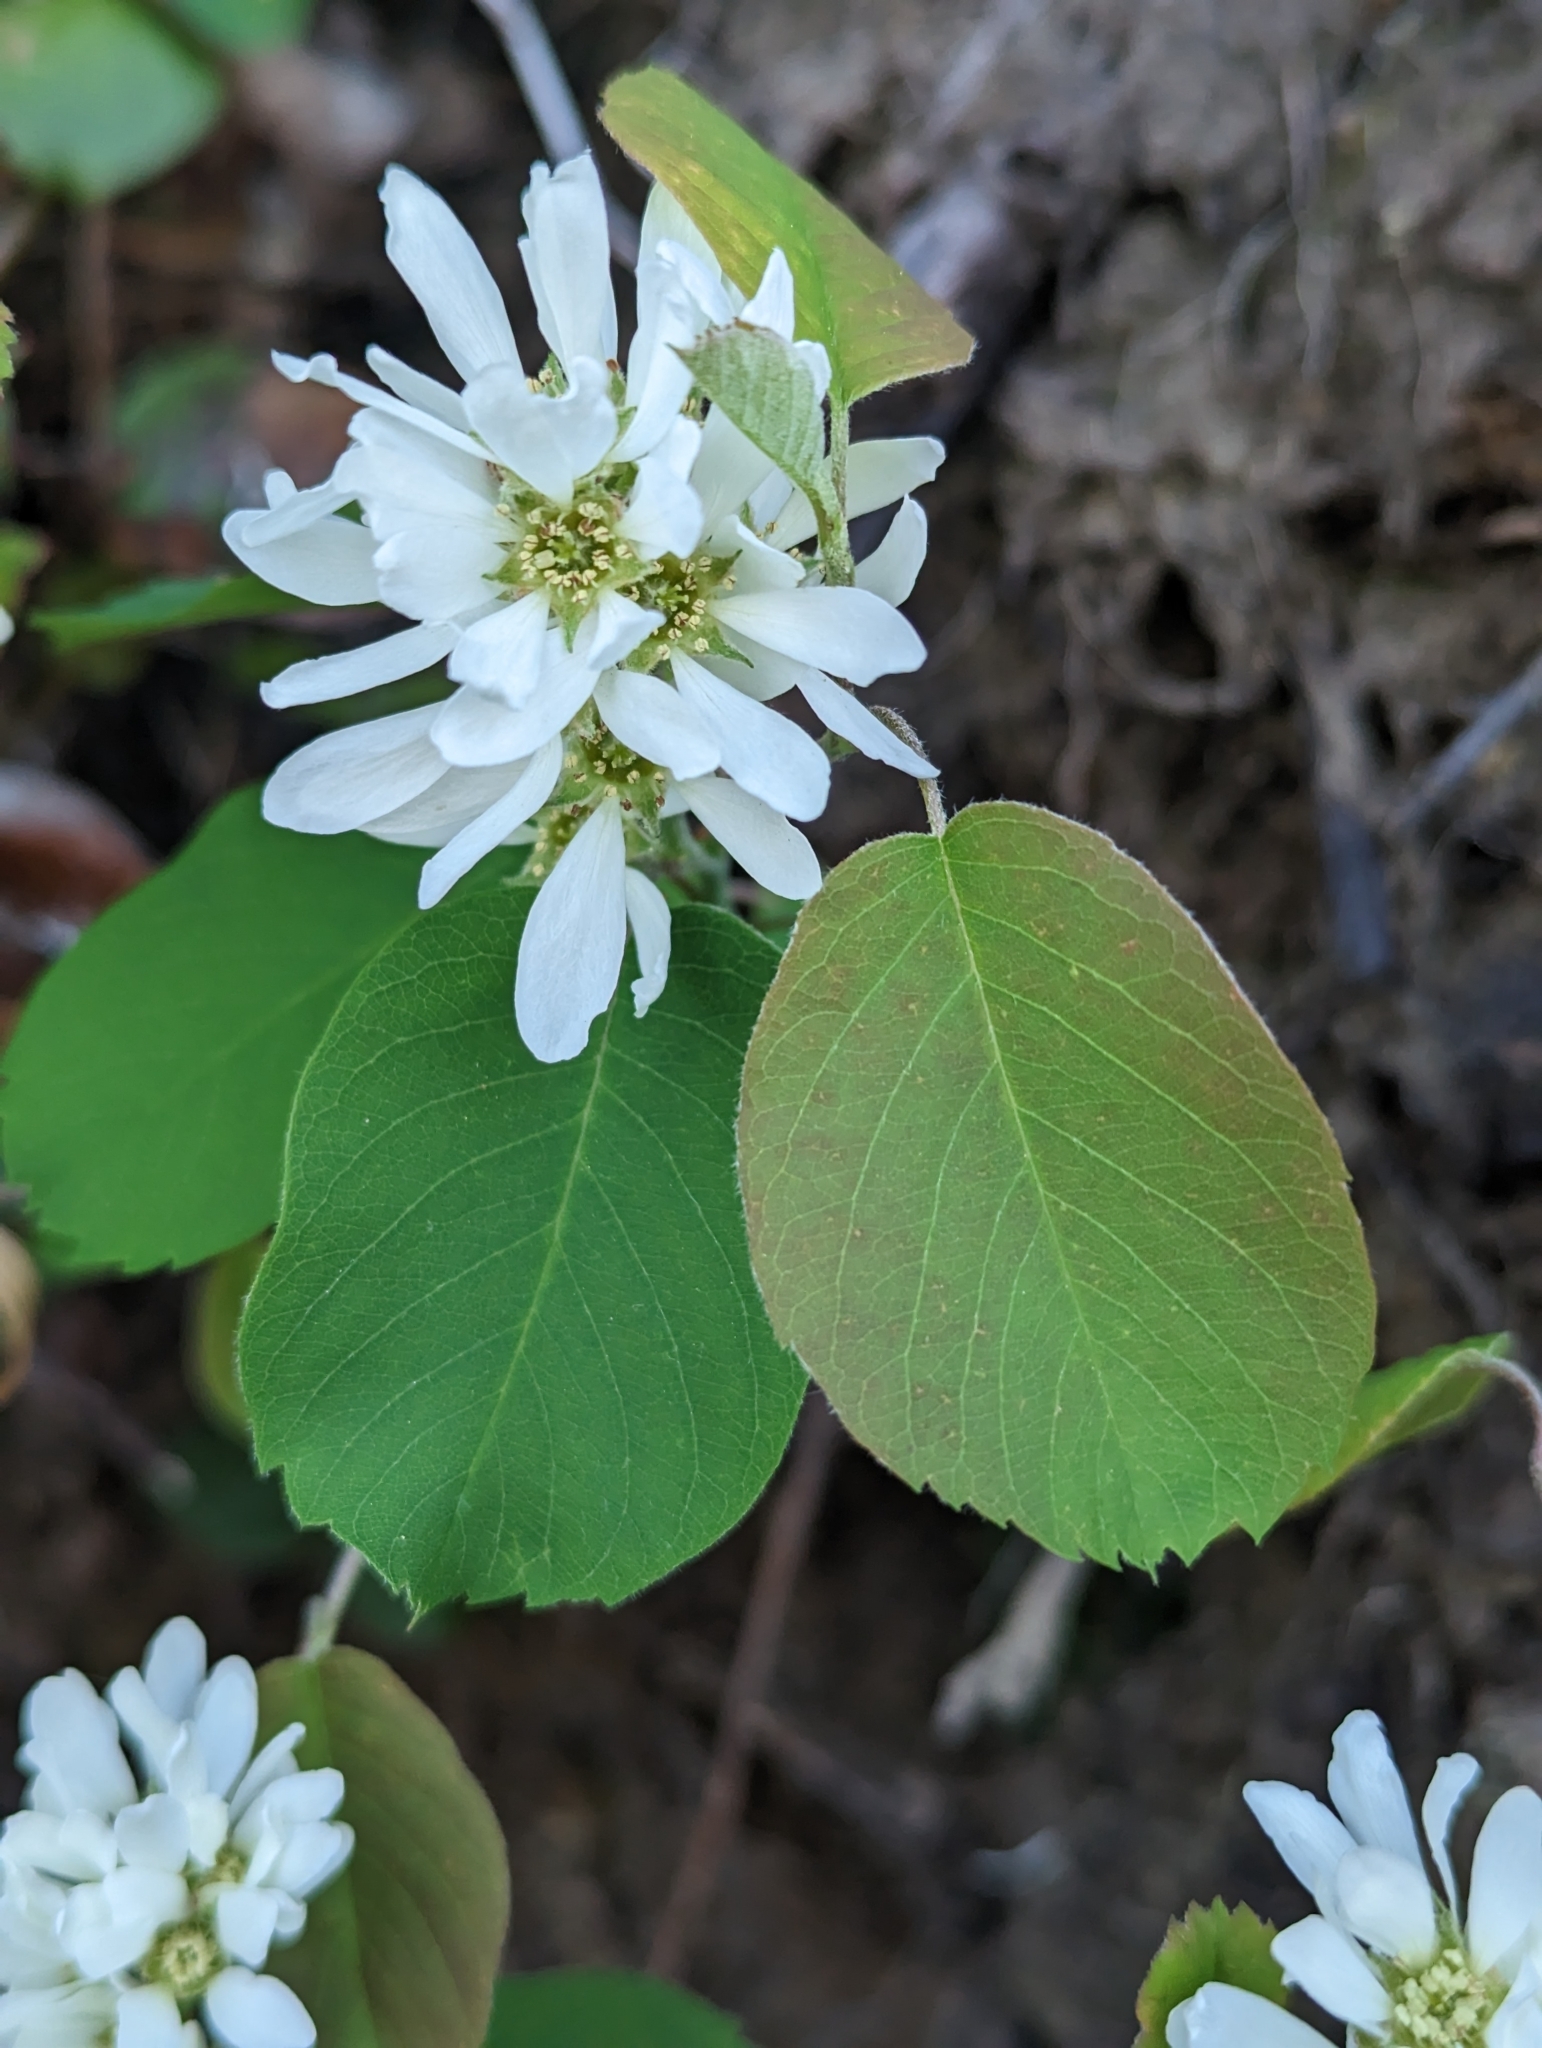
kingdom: Plantae
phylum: Tracheophyta
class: Magnoliopsida
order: Rosales
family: Rosaceae
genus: Amelanchier
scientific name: Amelanchier alnifolia
